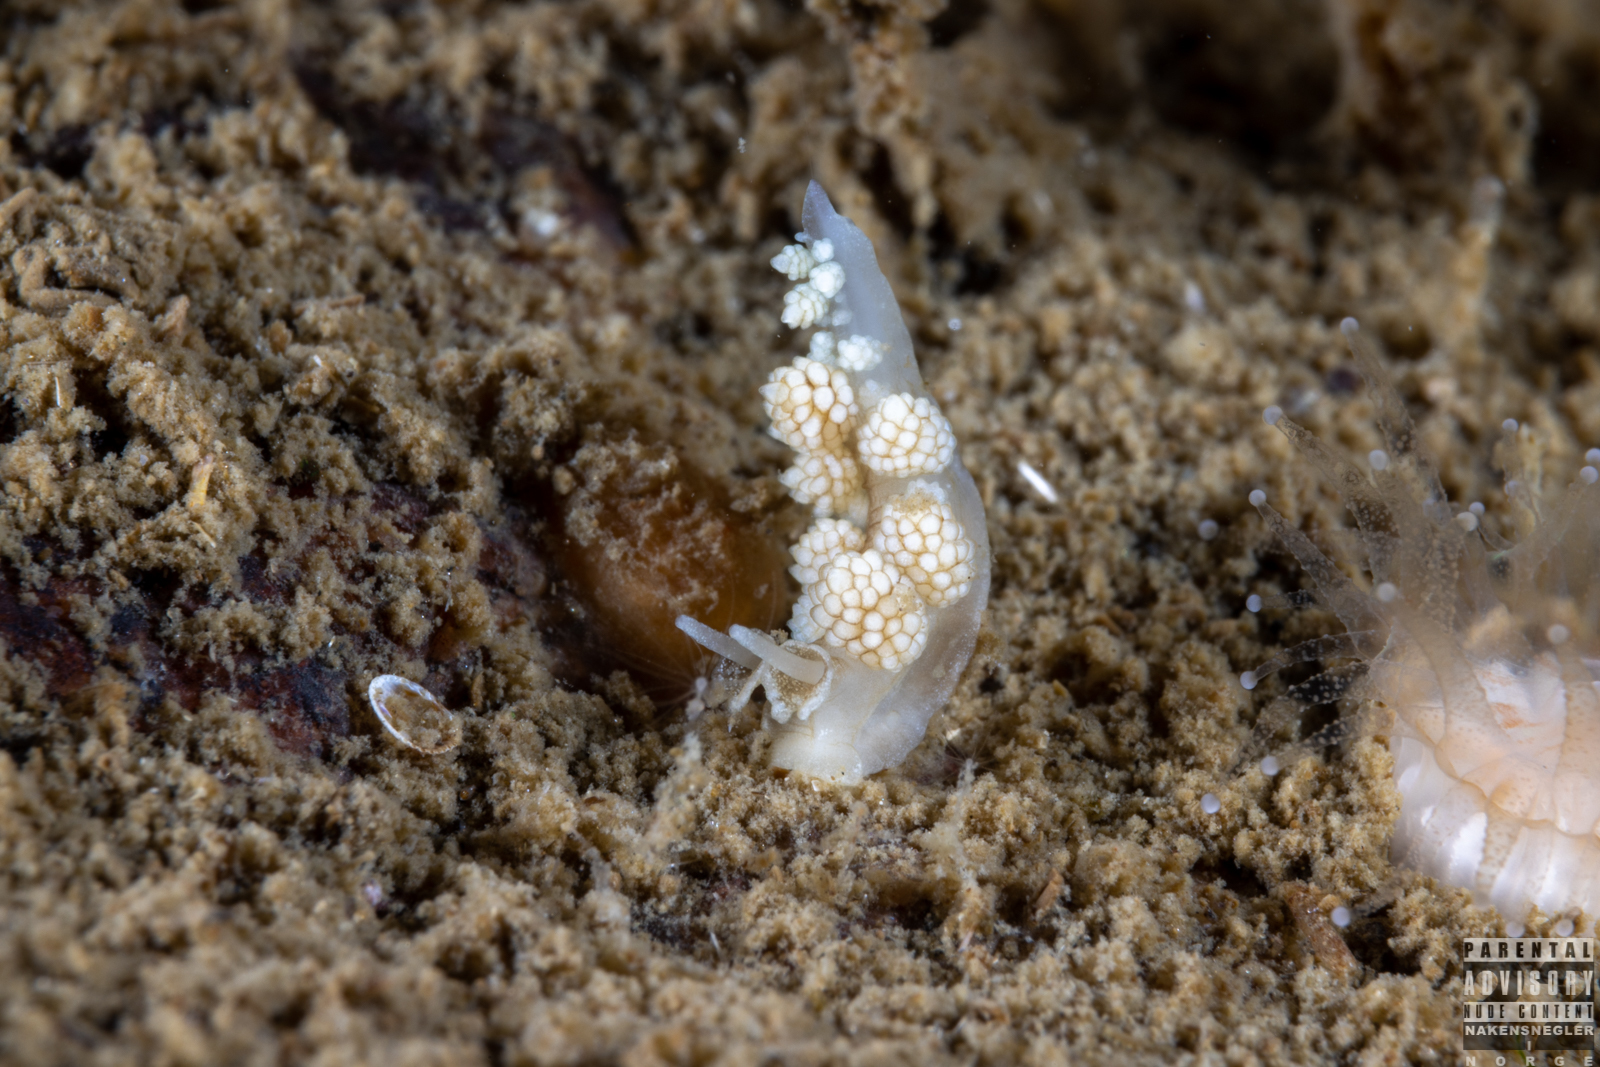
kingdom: Animalia
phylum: Mollusca
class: Gastropoda
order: Nudibranchia
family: Dotidae
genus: Doto
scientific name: Doto fragilis
